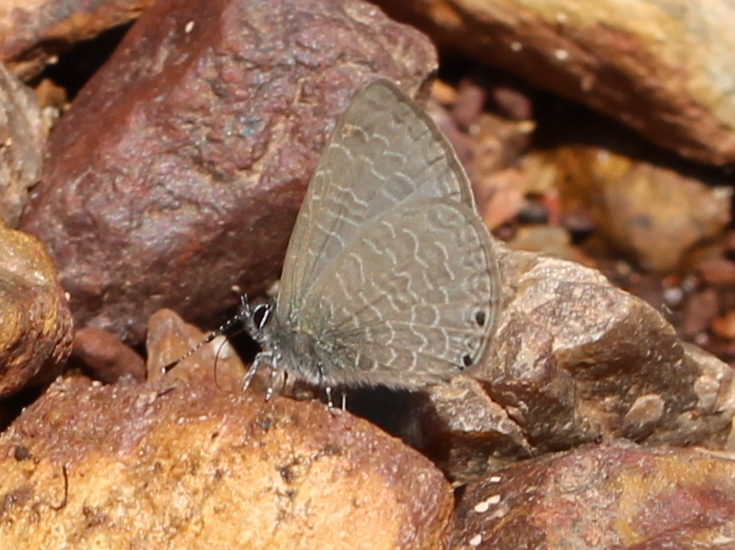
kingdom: Animalia
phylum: Arthropoda
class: Insecta
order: Lepidoptera
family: Lycaenidae
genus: Petrelaea
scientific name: Petrelaea dana
